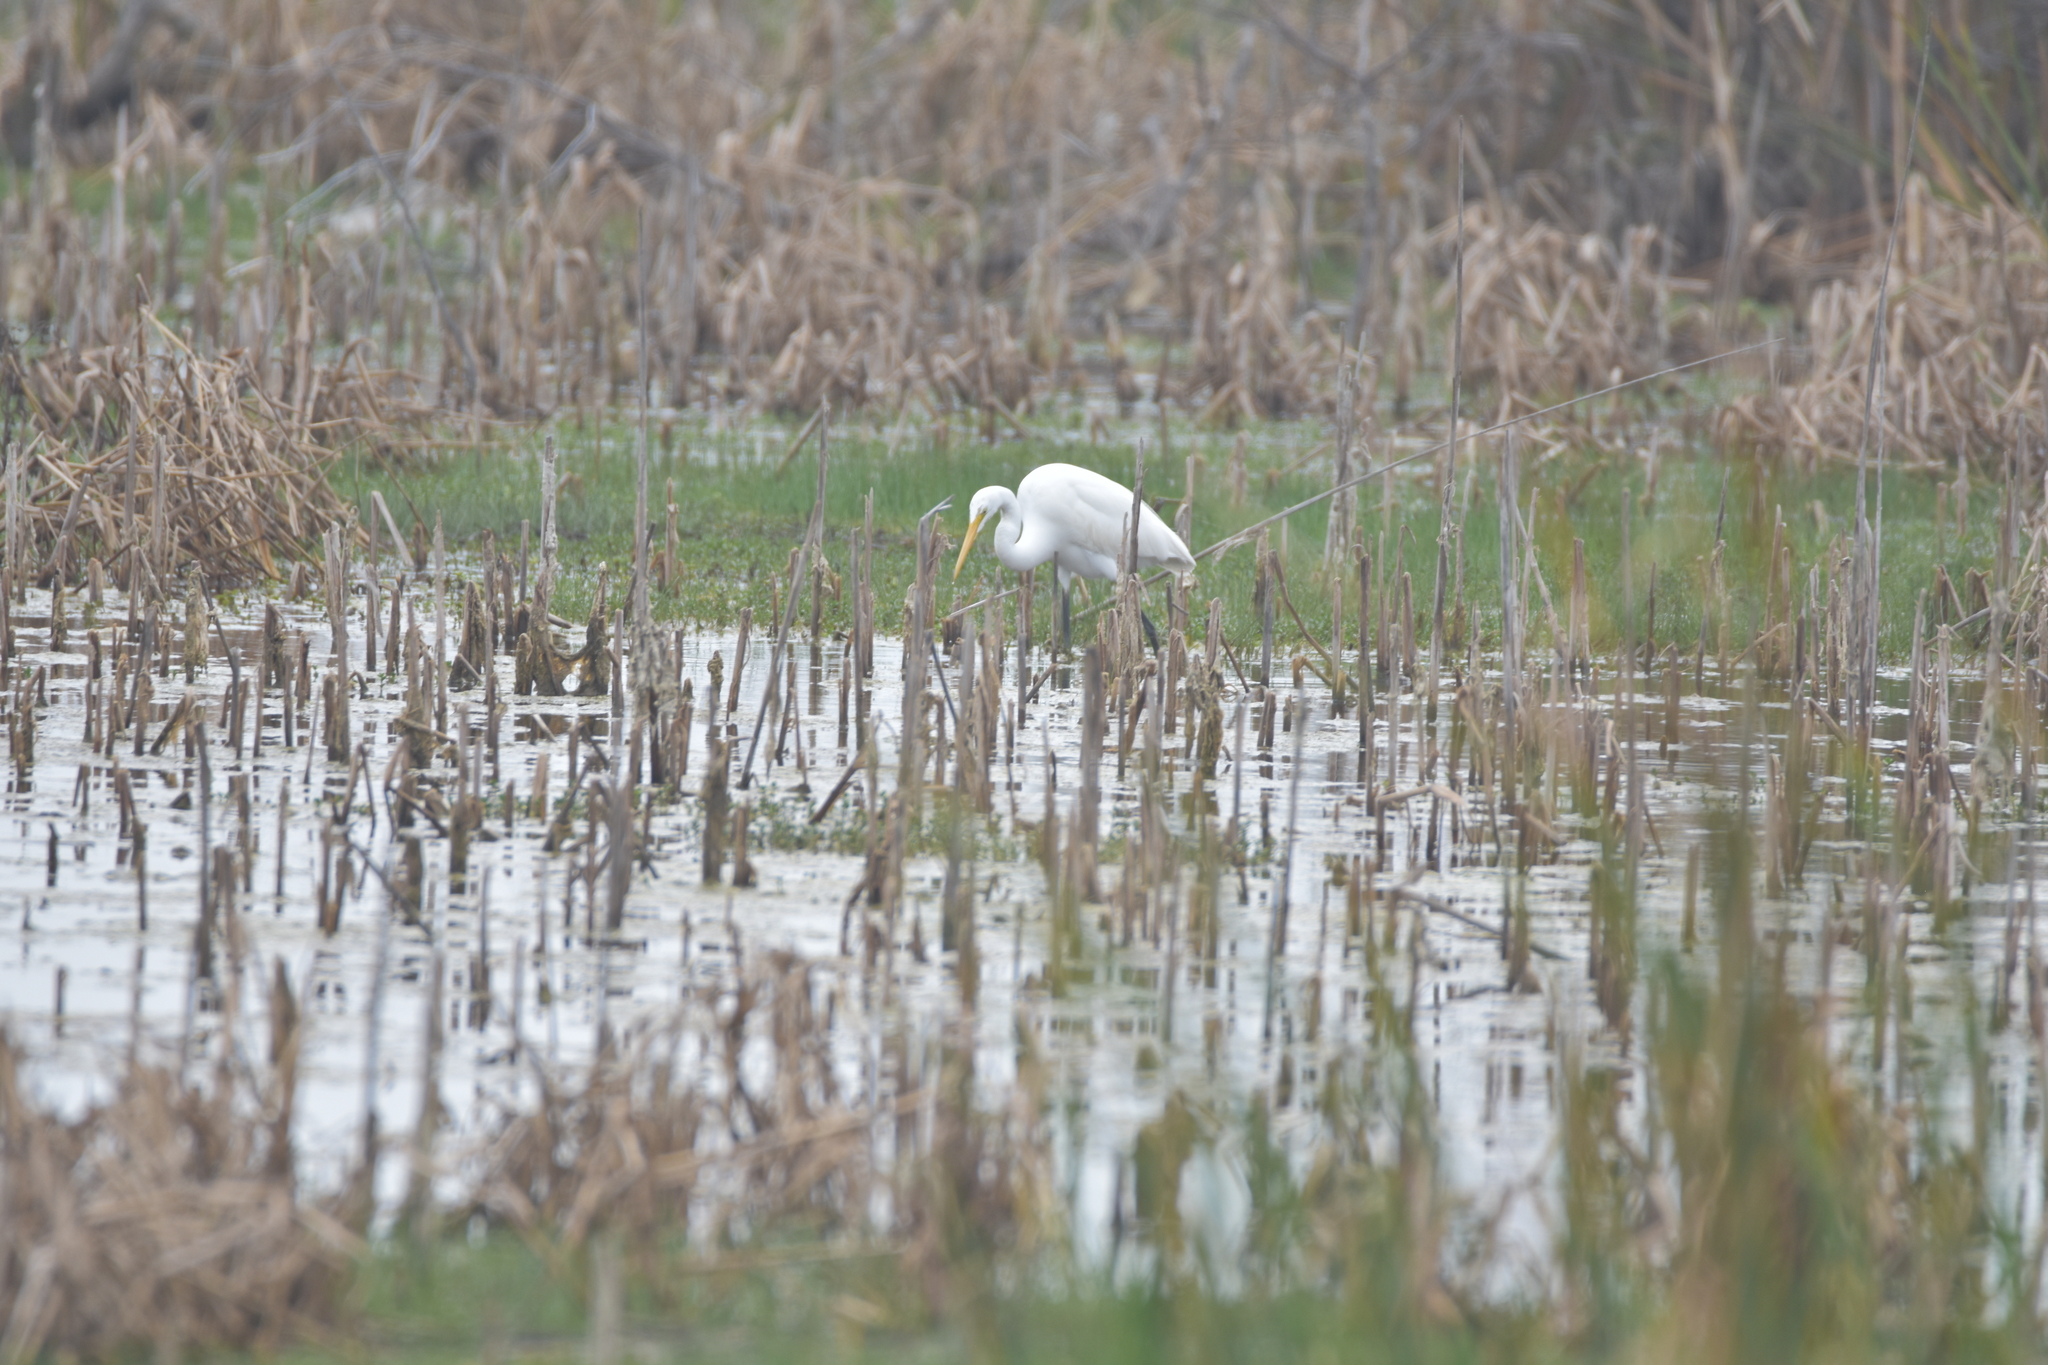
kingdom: Animalia
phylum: Chordata
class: Aves
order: Pelecaniformes
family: Ardeidae
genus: Ardea
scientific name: Ardea alba
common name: Great egret
